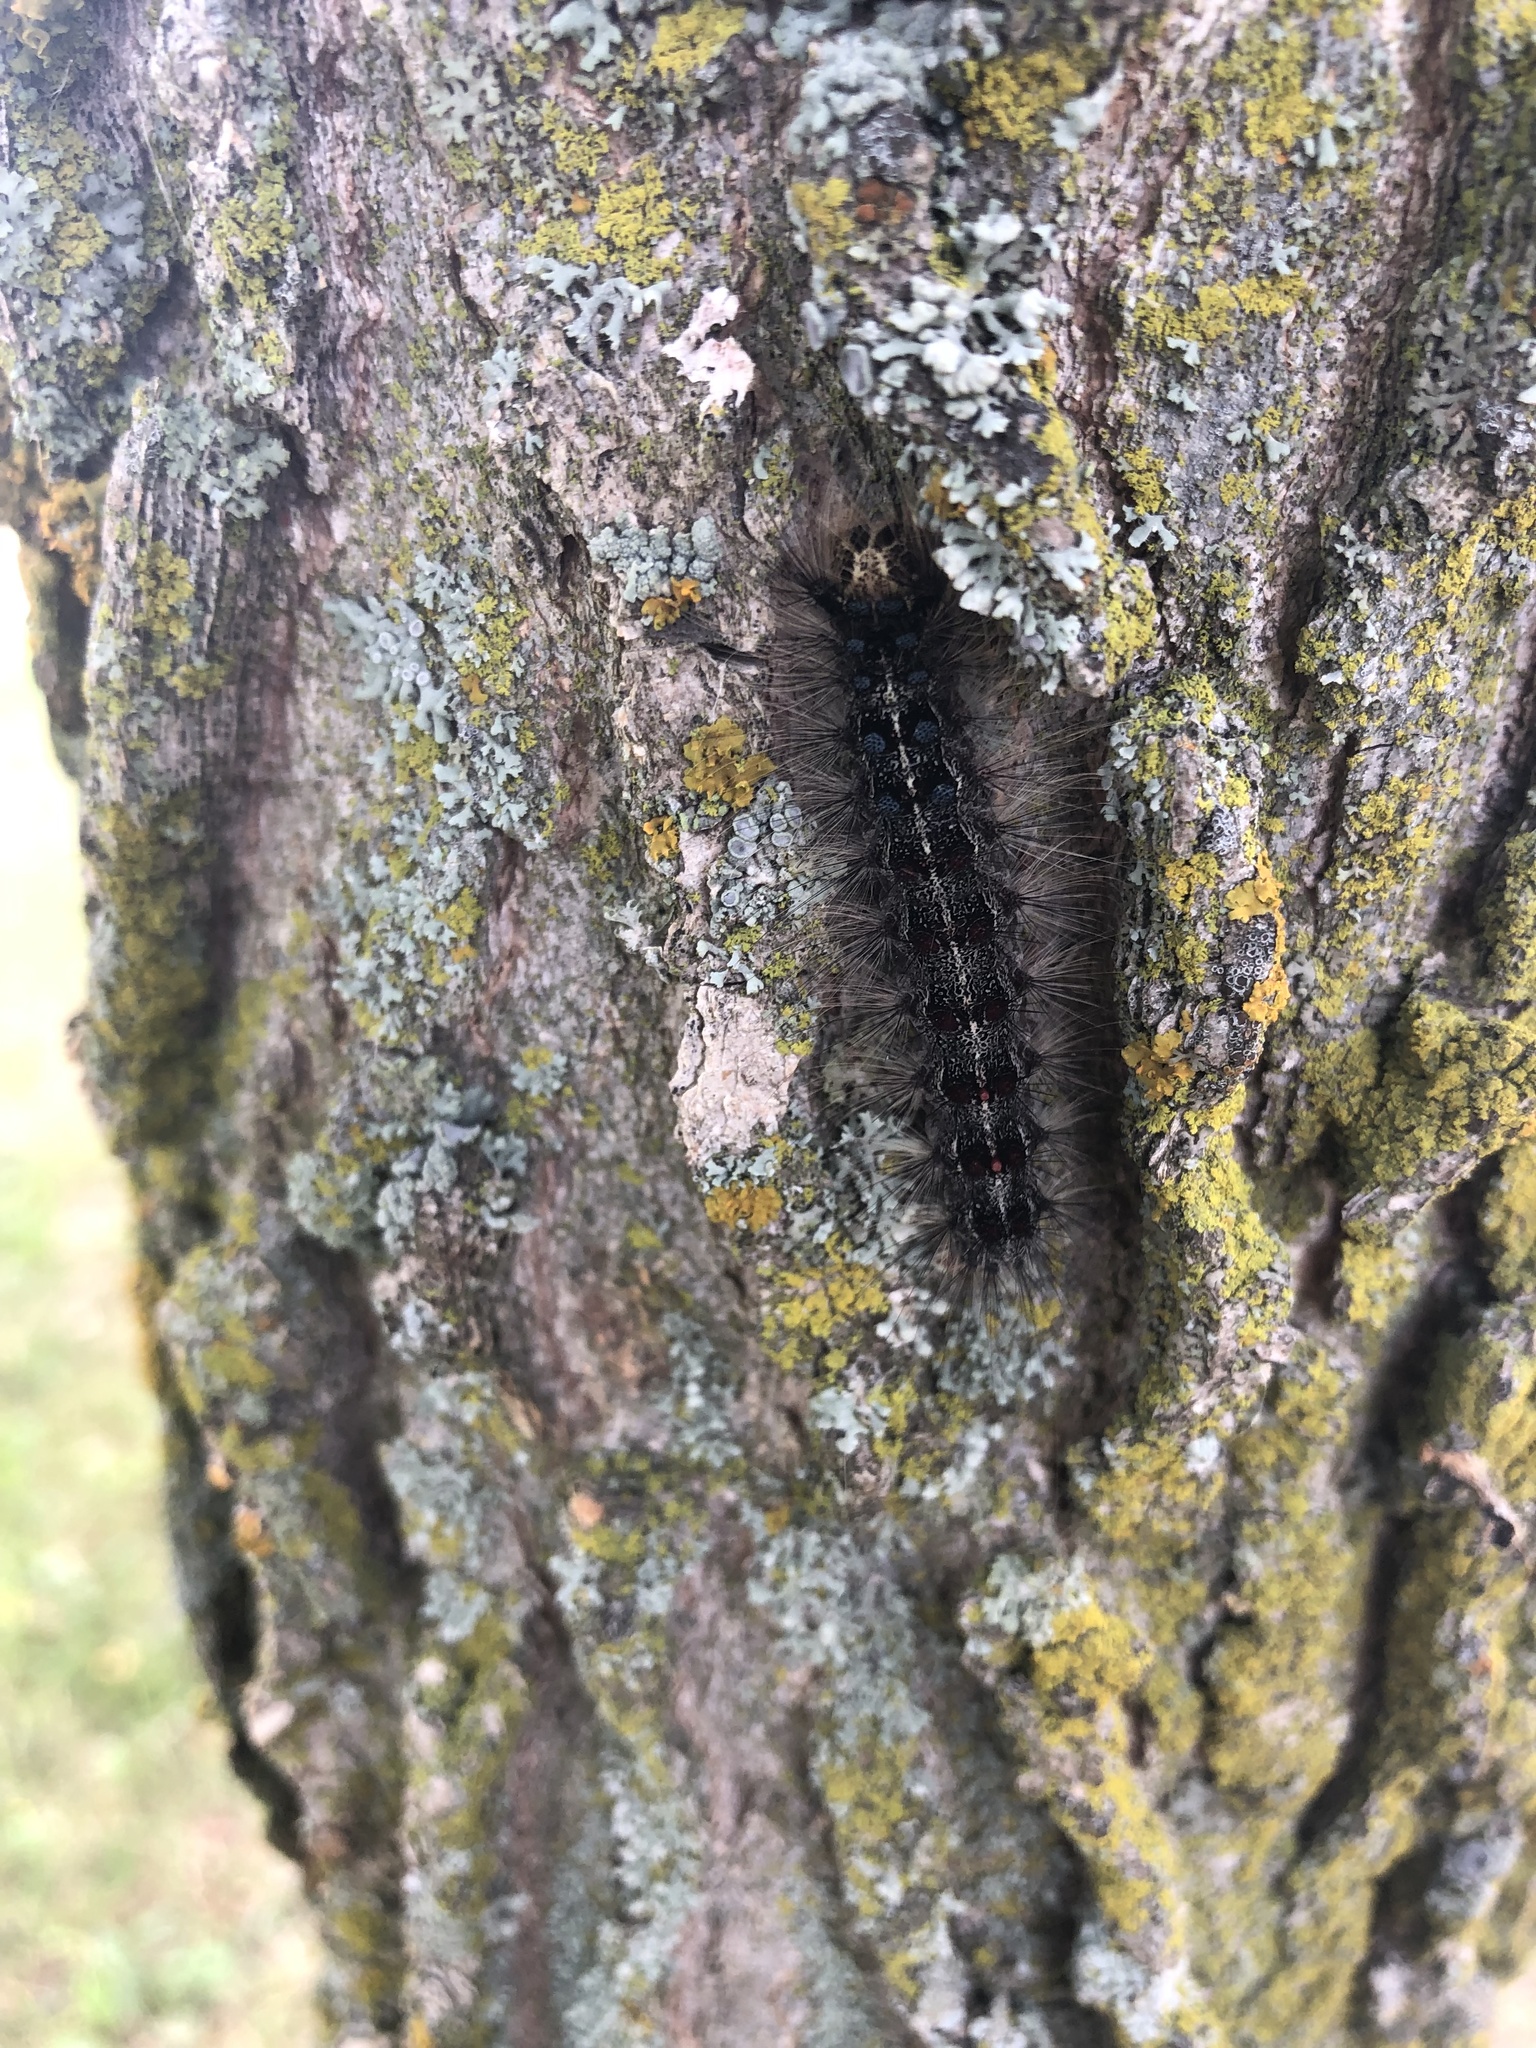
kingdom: Animalia
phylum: Arthropoda
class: Insecta
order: Lepidoptera
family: Erebidae
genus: Lymantria
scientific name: Lymantria dispar
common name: Gypsy moth
